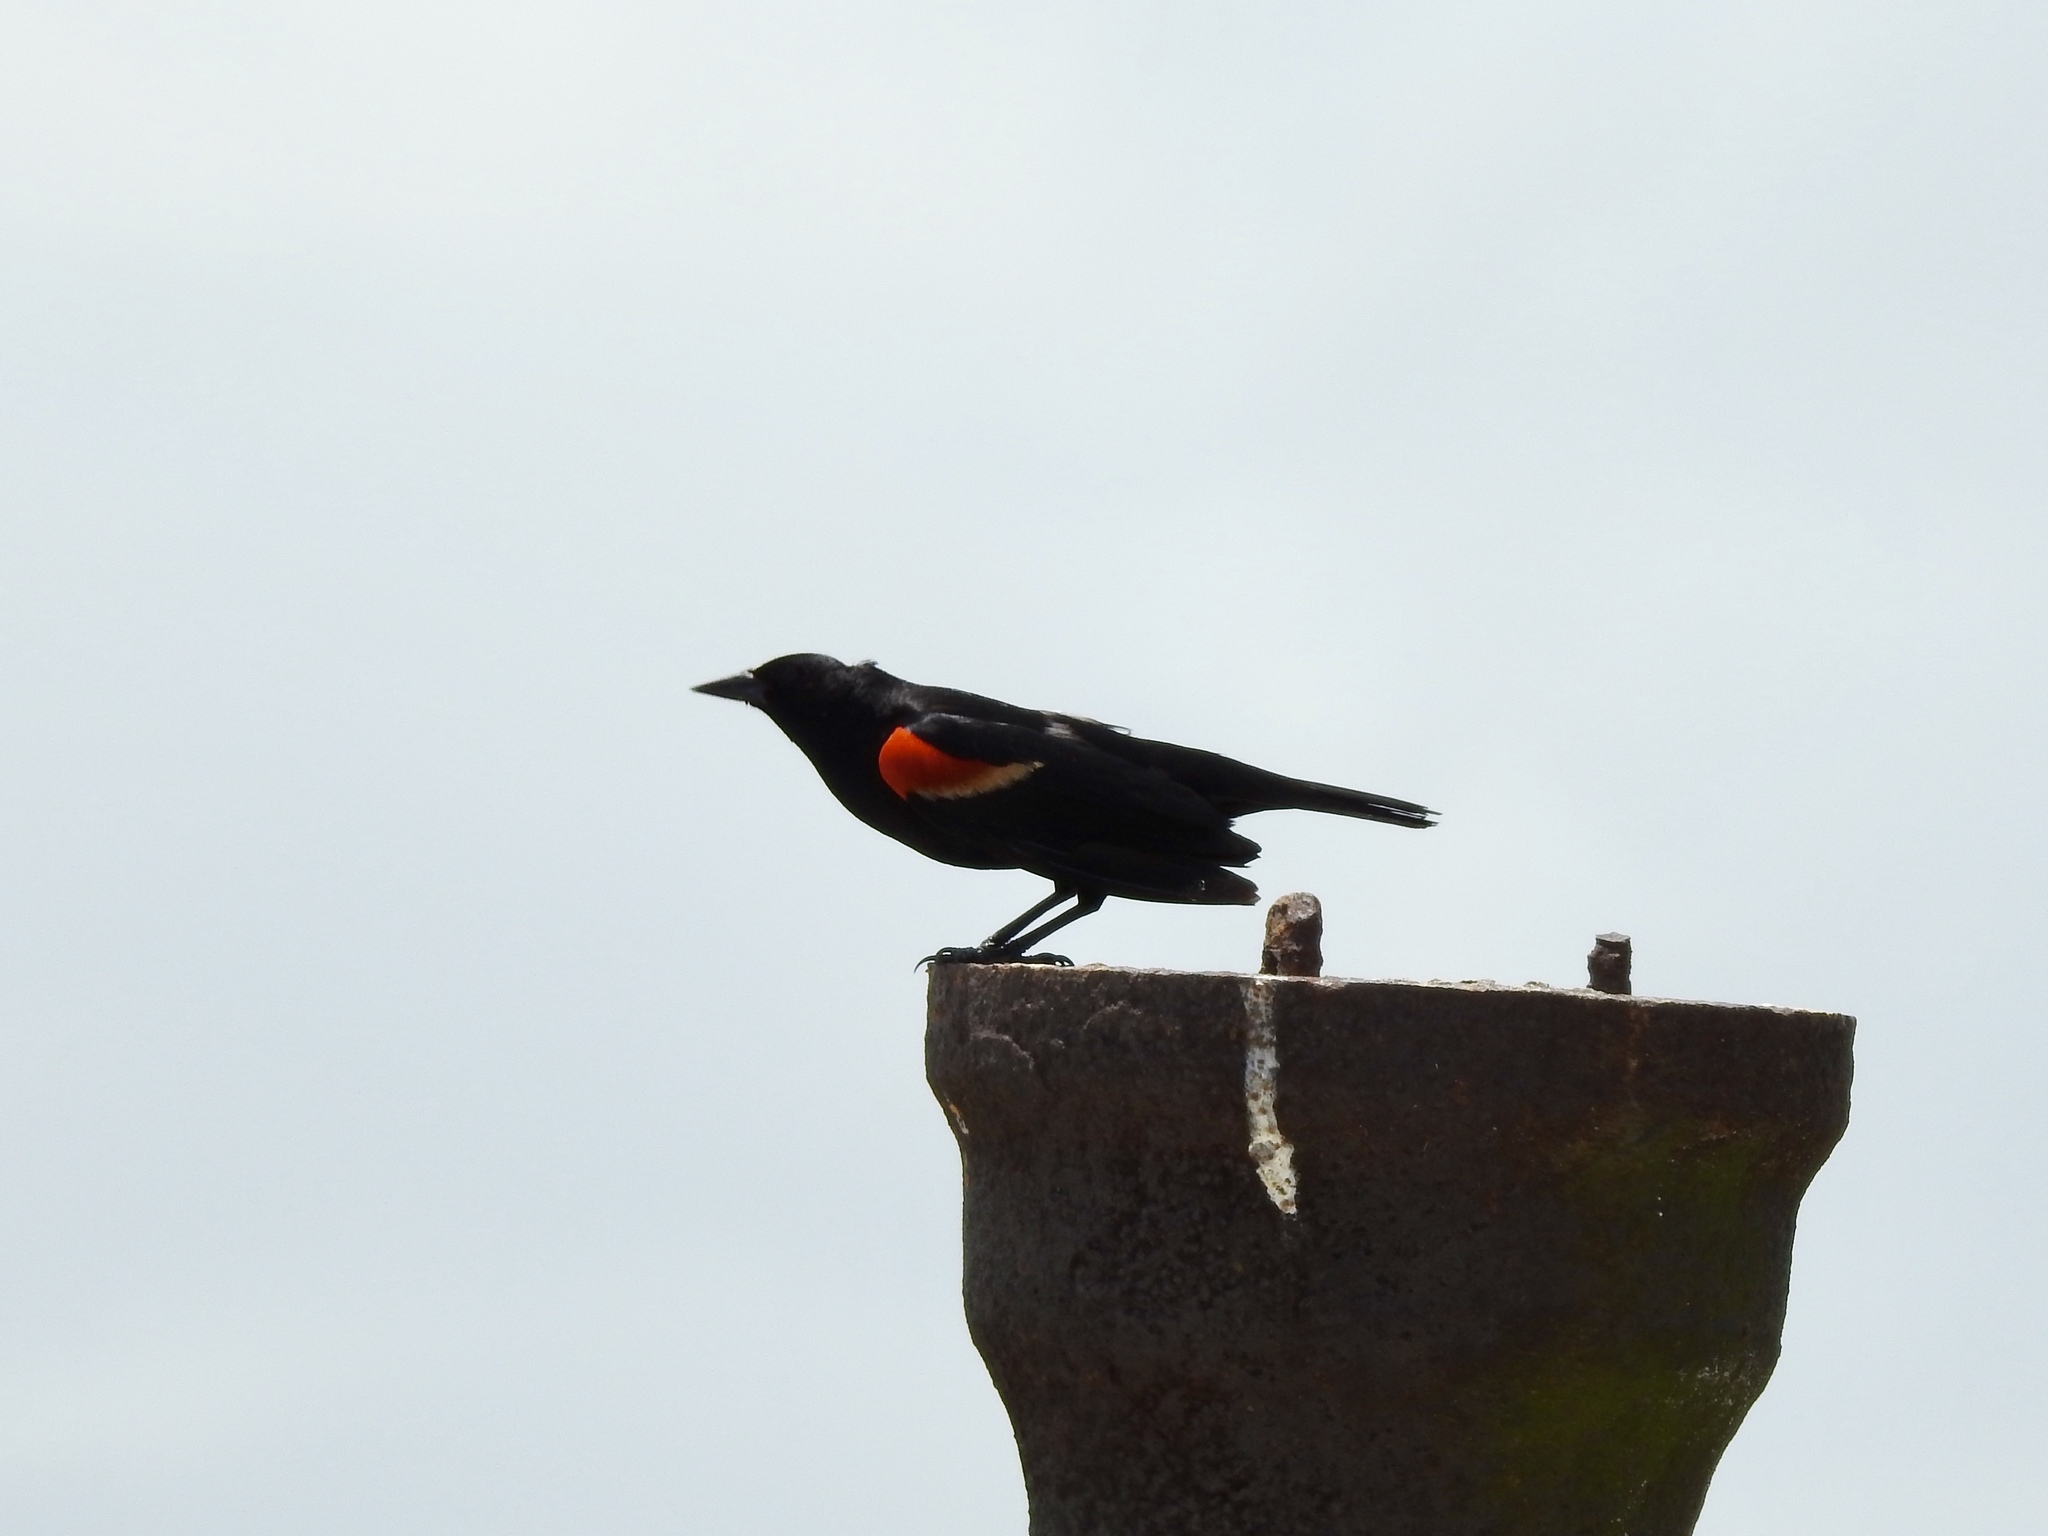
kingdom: Animalia
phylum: Chordata
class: Aves
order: Passeriformes
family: Icteridae
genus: Agelaius
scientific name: Agelaius phoeniceus
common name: Red-winged blackbird
